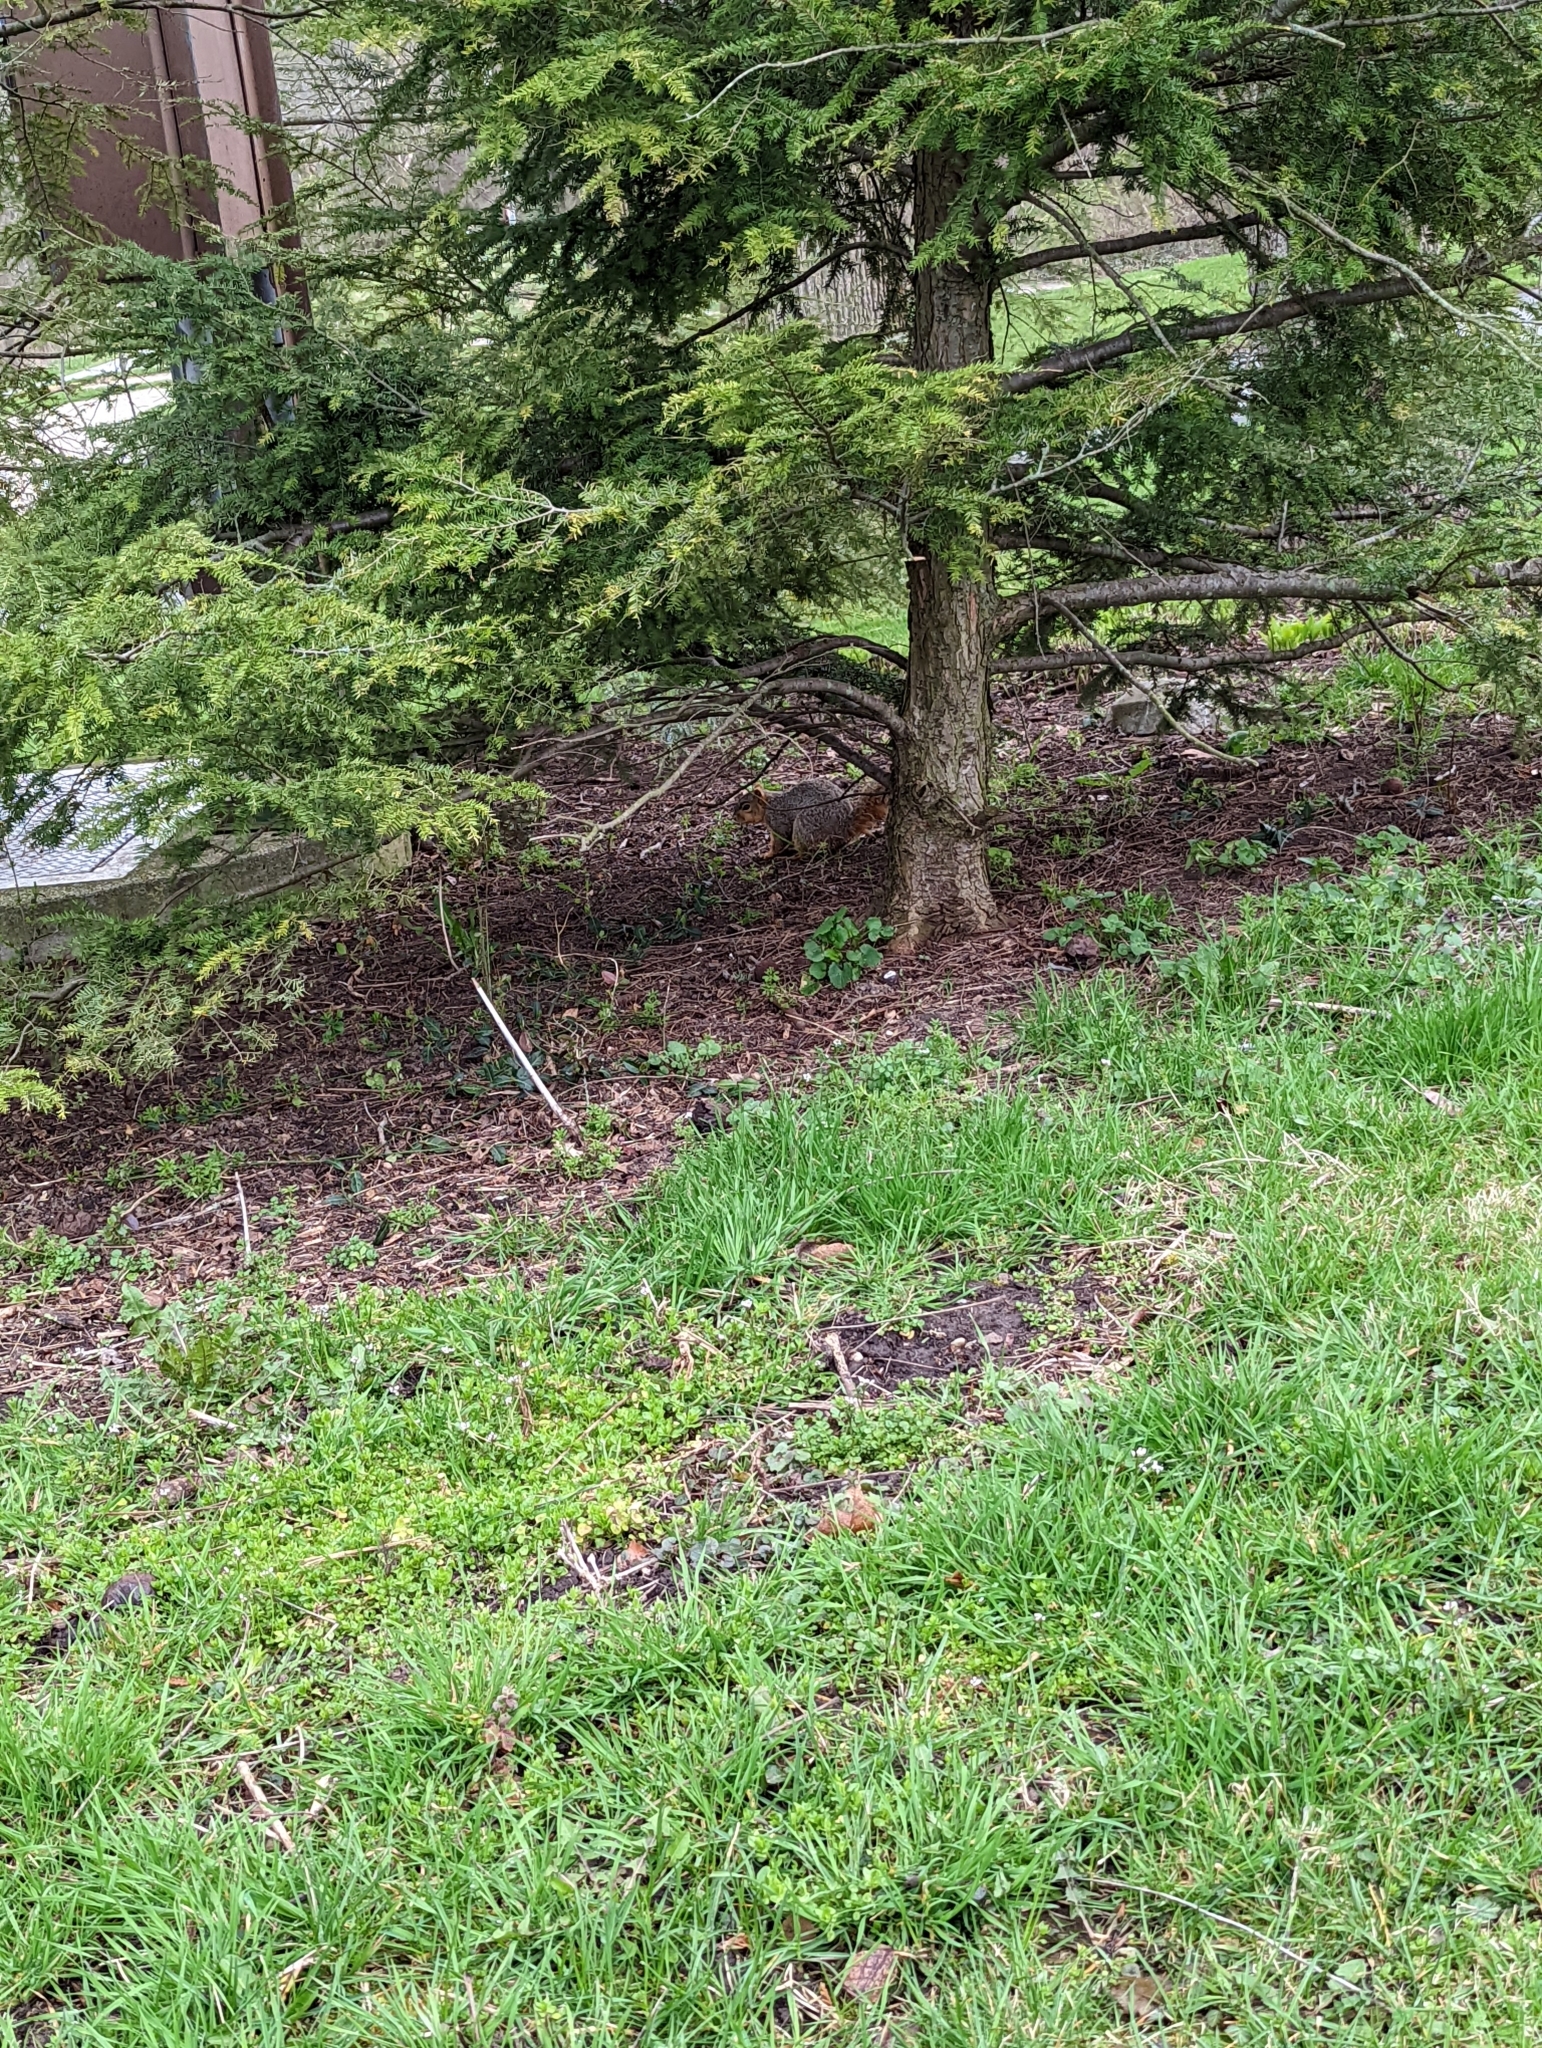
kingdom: Animalia
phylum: Chordata
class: Mammalia
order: Rodentia
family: Sciuridae
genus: Sciurus
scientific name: Sciurus niger
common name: Fox squirrel
